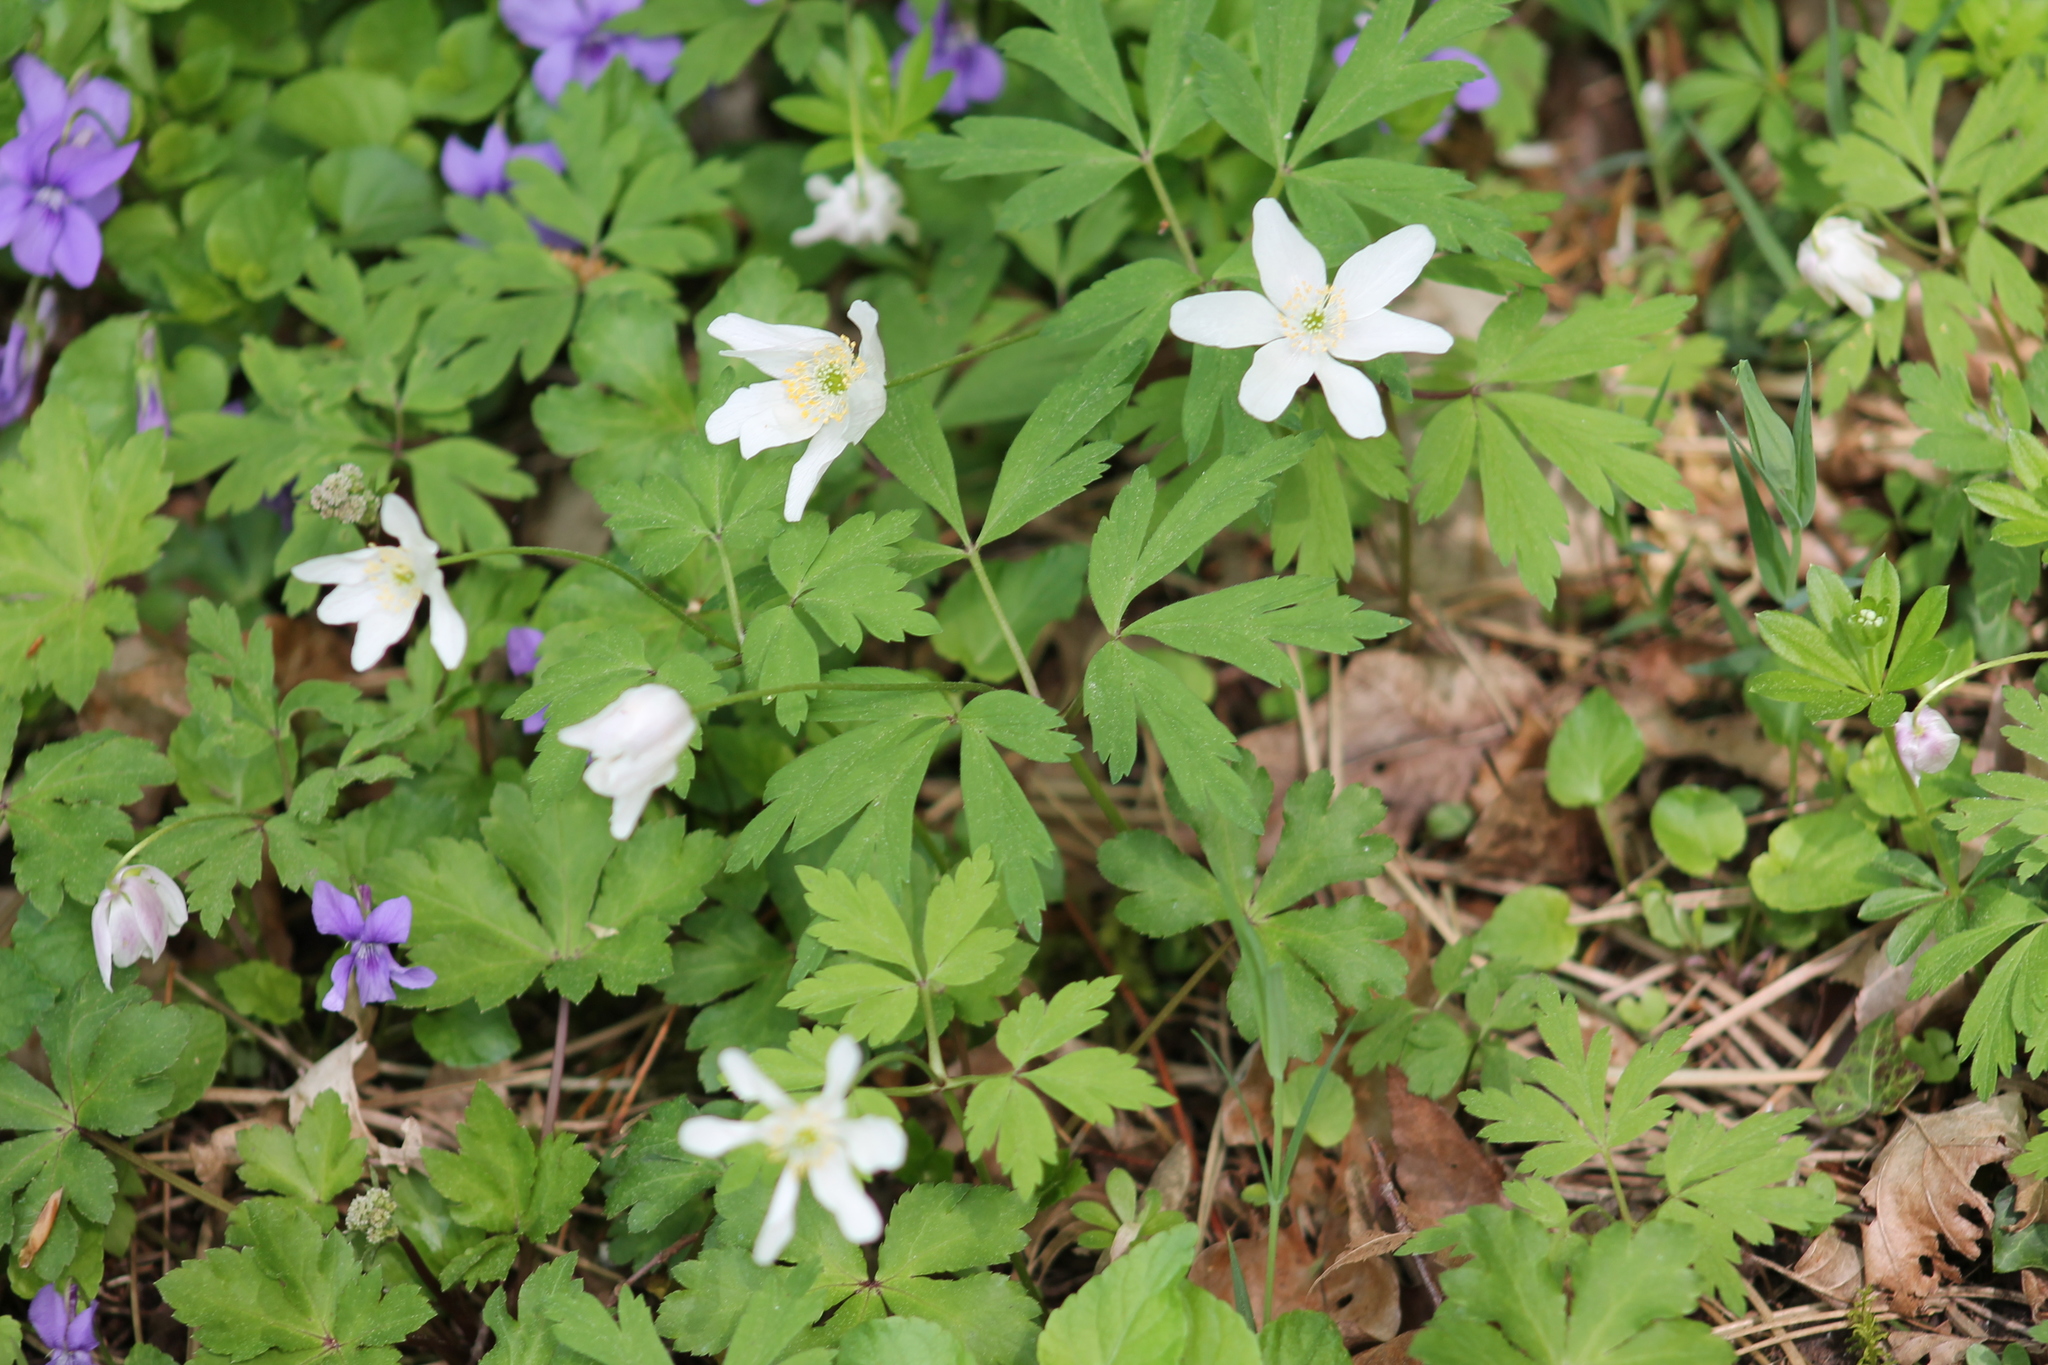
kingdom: Plantae
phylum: Tracheophyta
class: Magnoliopsida
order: Ranunculales
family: Ranunculaceae
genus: Anemone
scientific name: Anemone nemorosa
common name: Wood anemone
